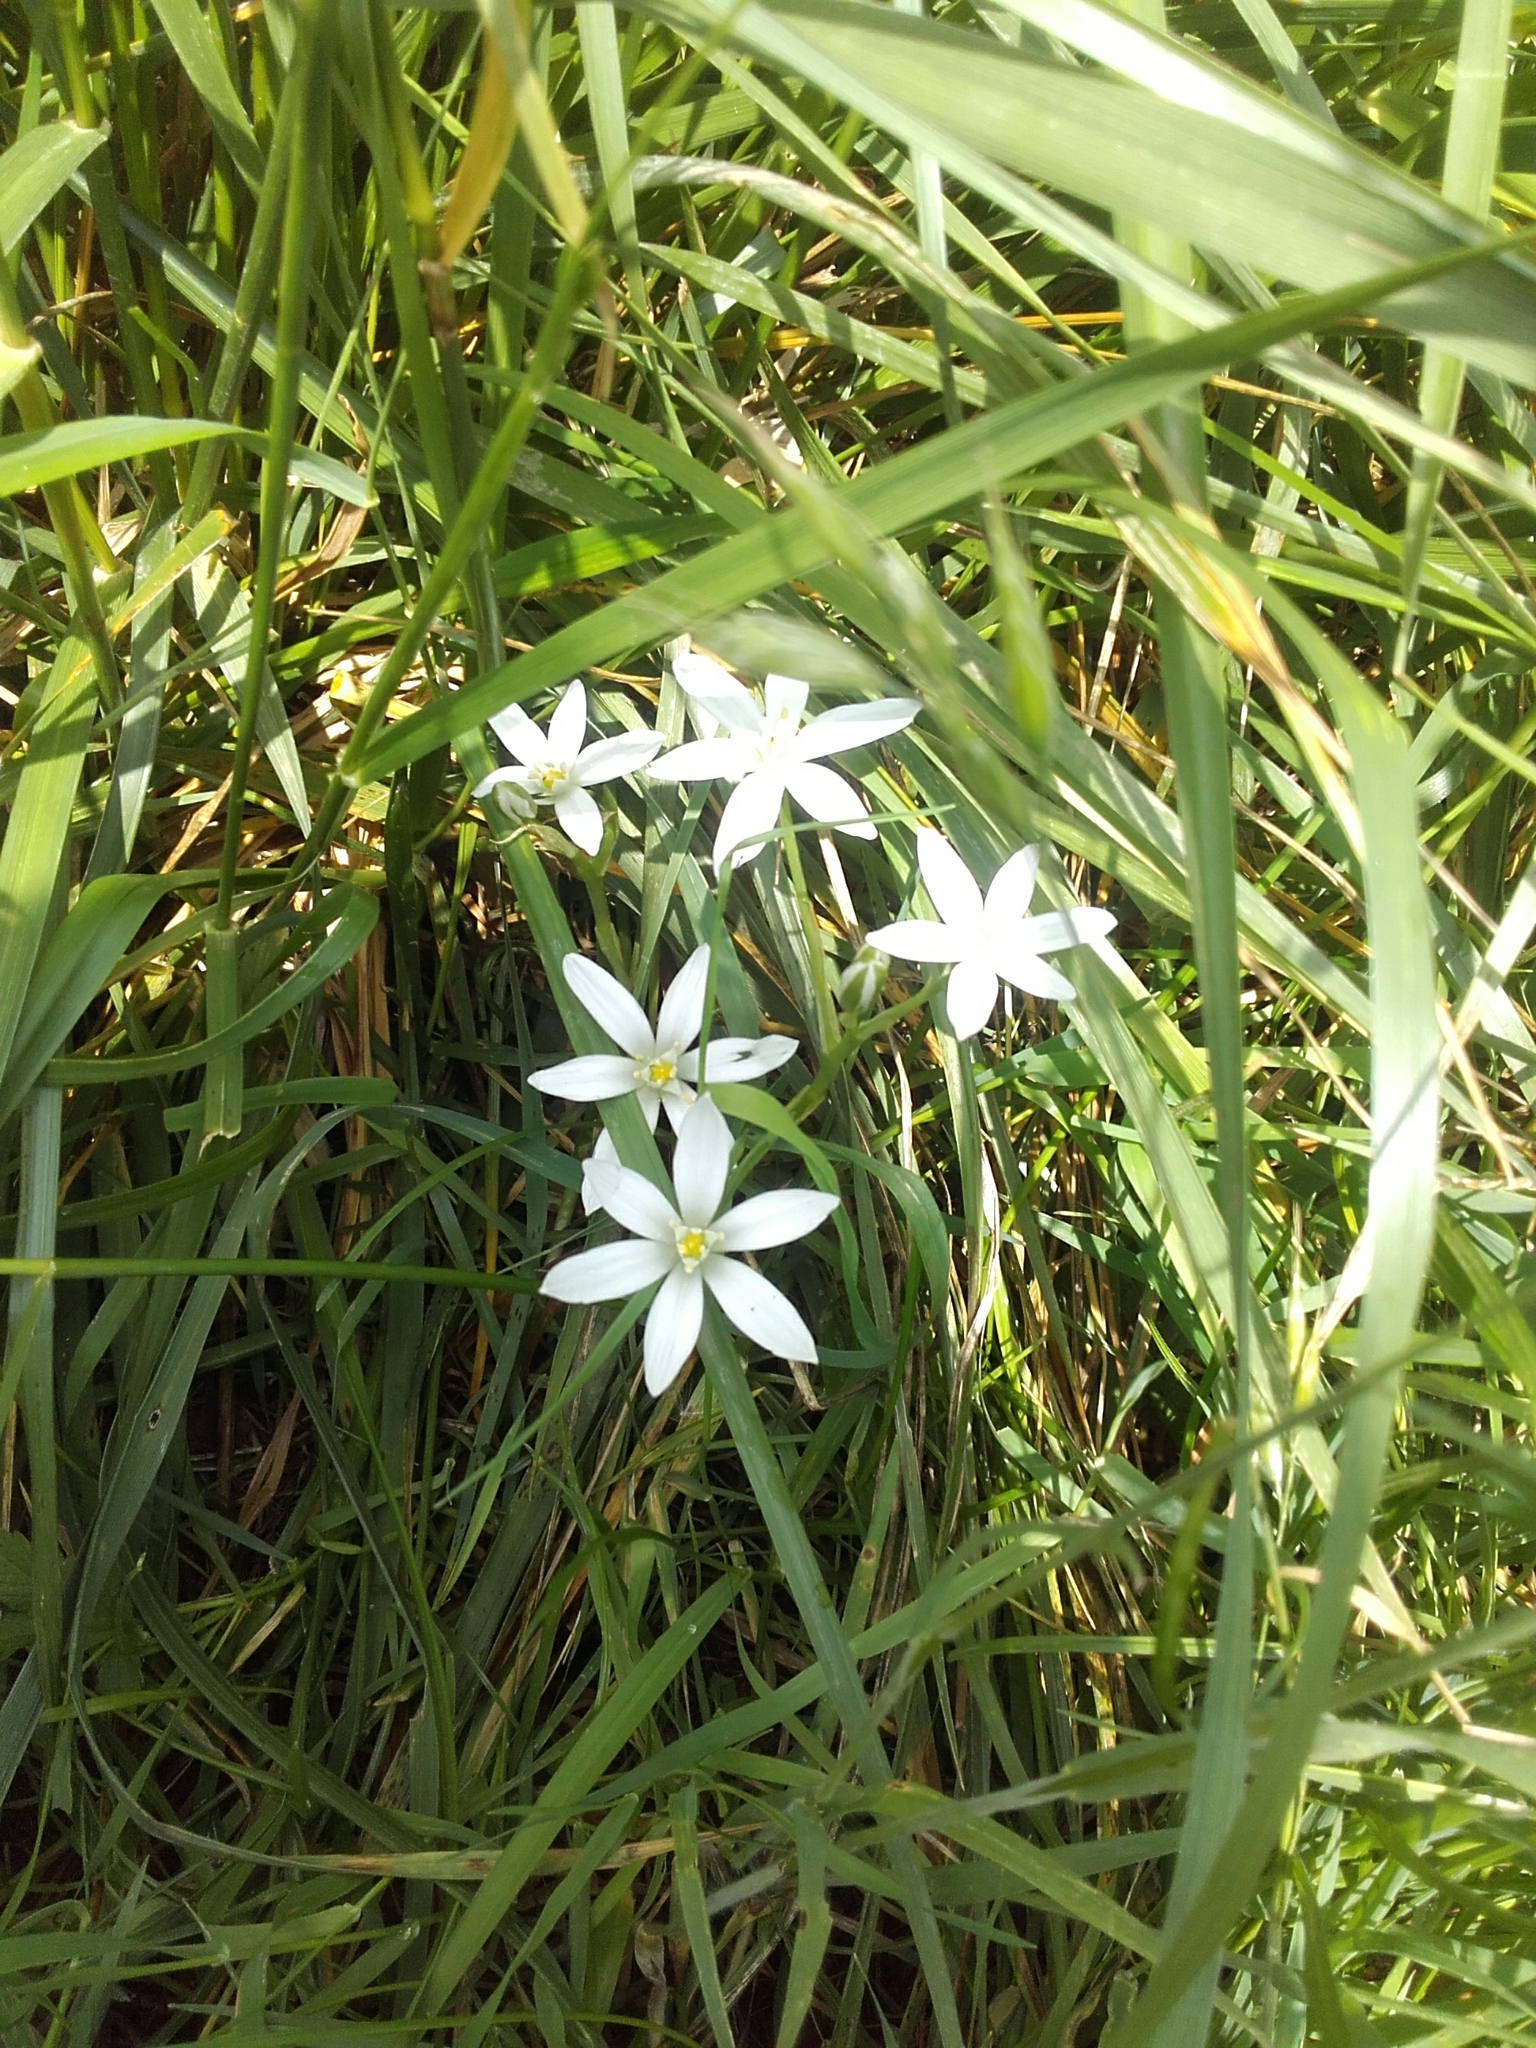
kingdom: Plantae
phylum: Tracheophyta
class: Liliopsida
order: Asparagales
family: Asparagaceae
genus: Ornithogalum
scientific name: Ornithogalum umbellatum
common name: Garden star-of-bethlehem
